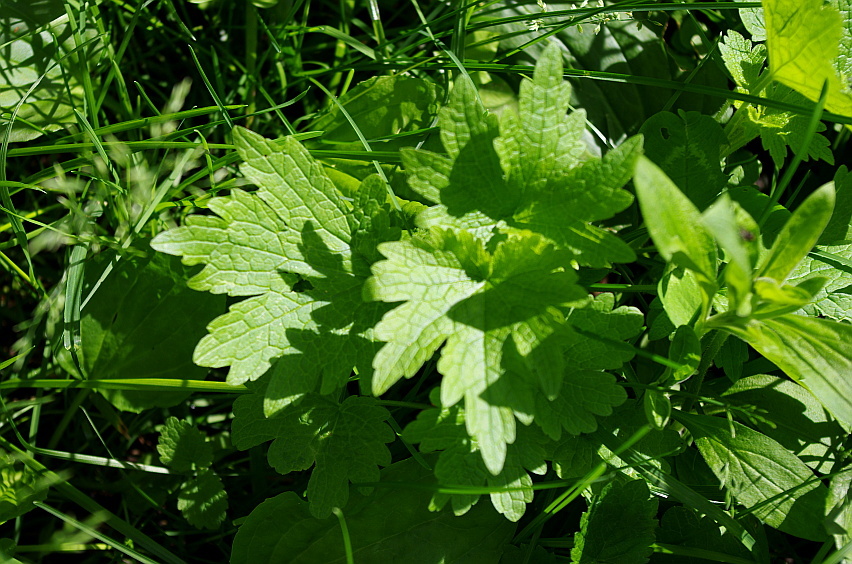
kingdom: Plantae
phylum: Tracheophyta
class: Magnoliopsida
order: Lamiales
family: Lamiaceae
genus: Leonurus
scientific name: Leonurus quinquelobatus
